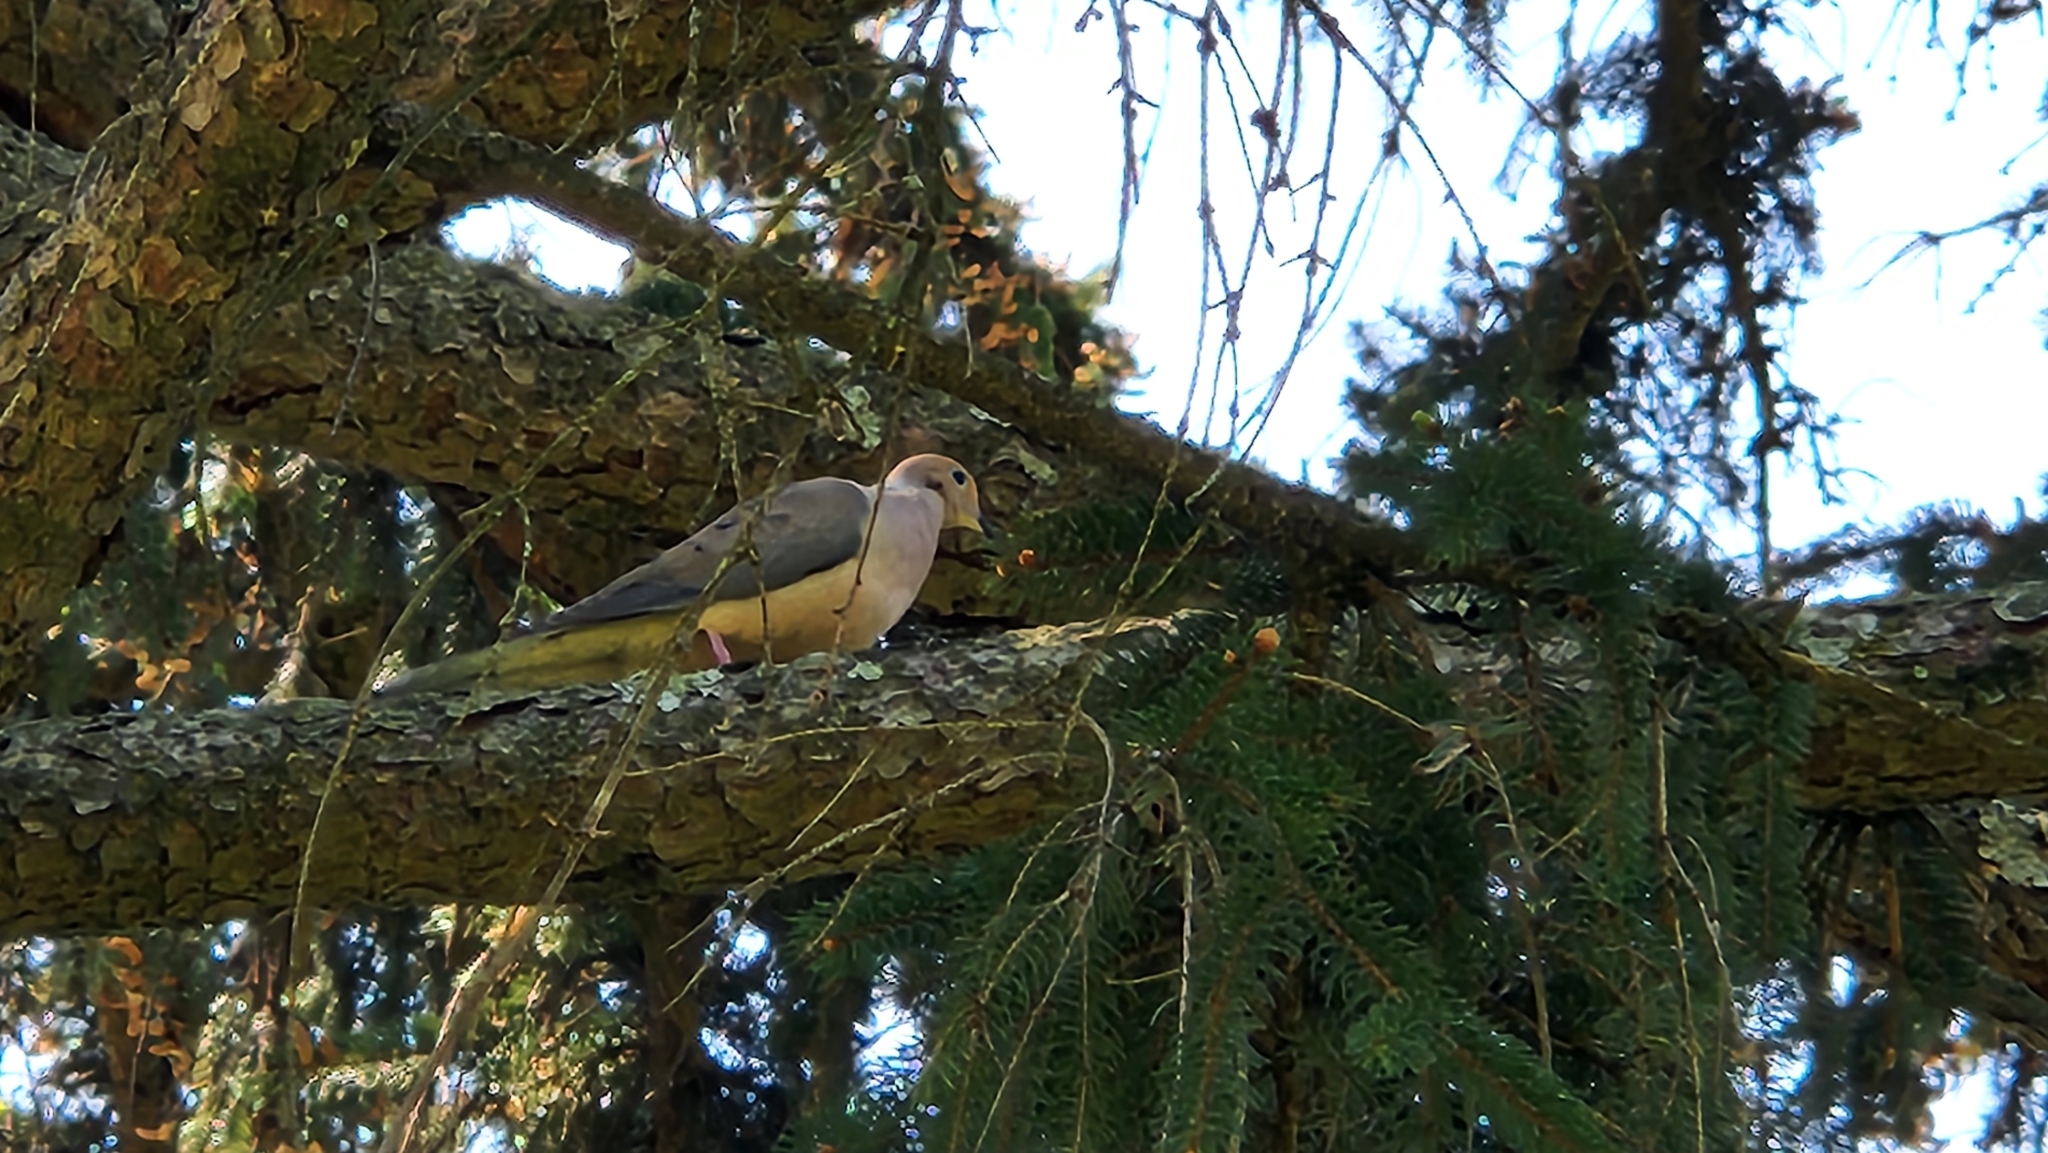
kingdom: Animalia
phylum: Chordata
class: Aves
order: Columbiformes
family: Columbidae
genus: Zenaida
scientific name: Zenaida macroura
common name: Mourning dove
